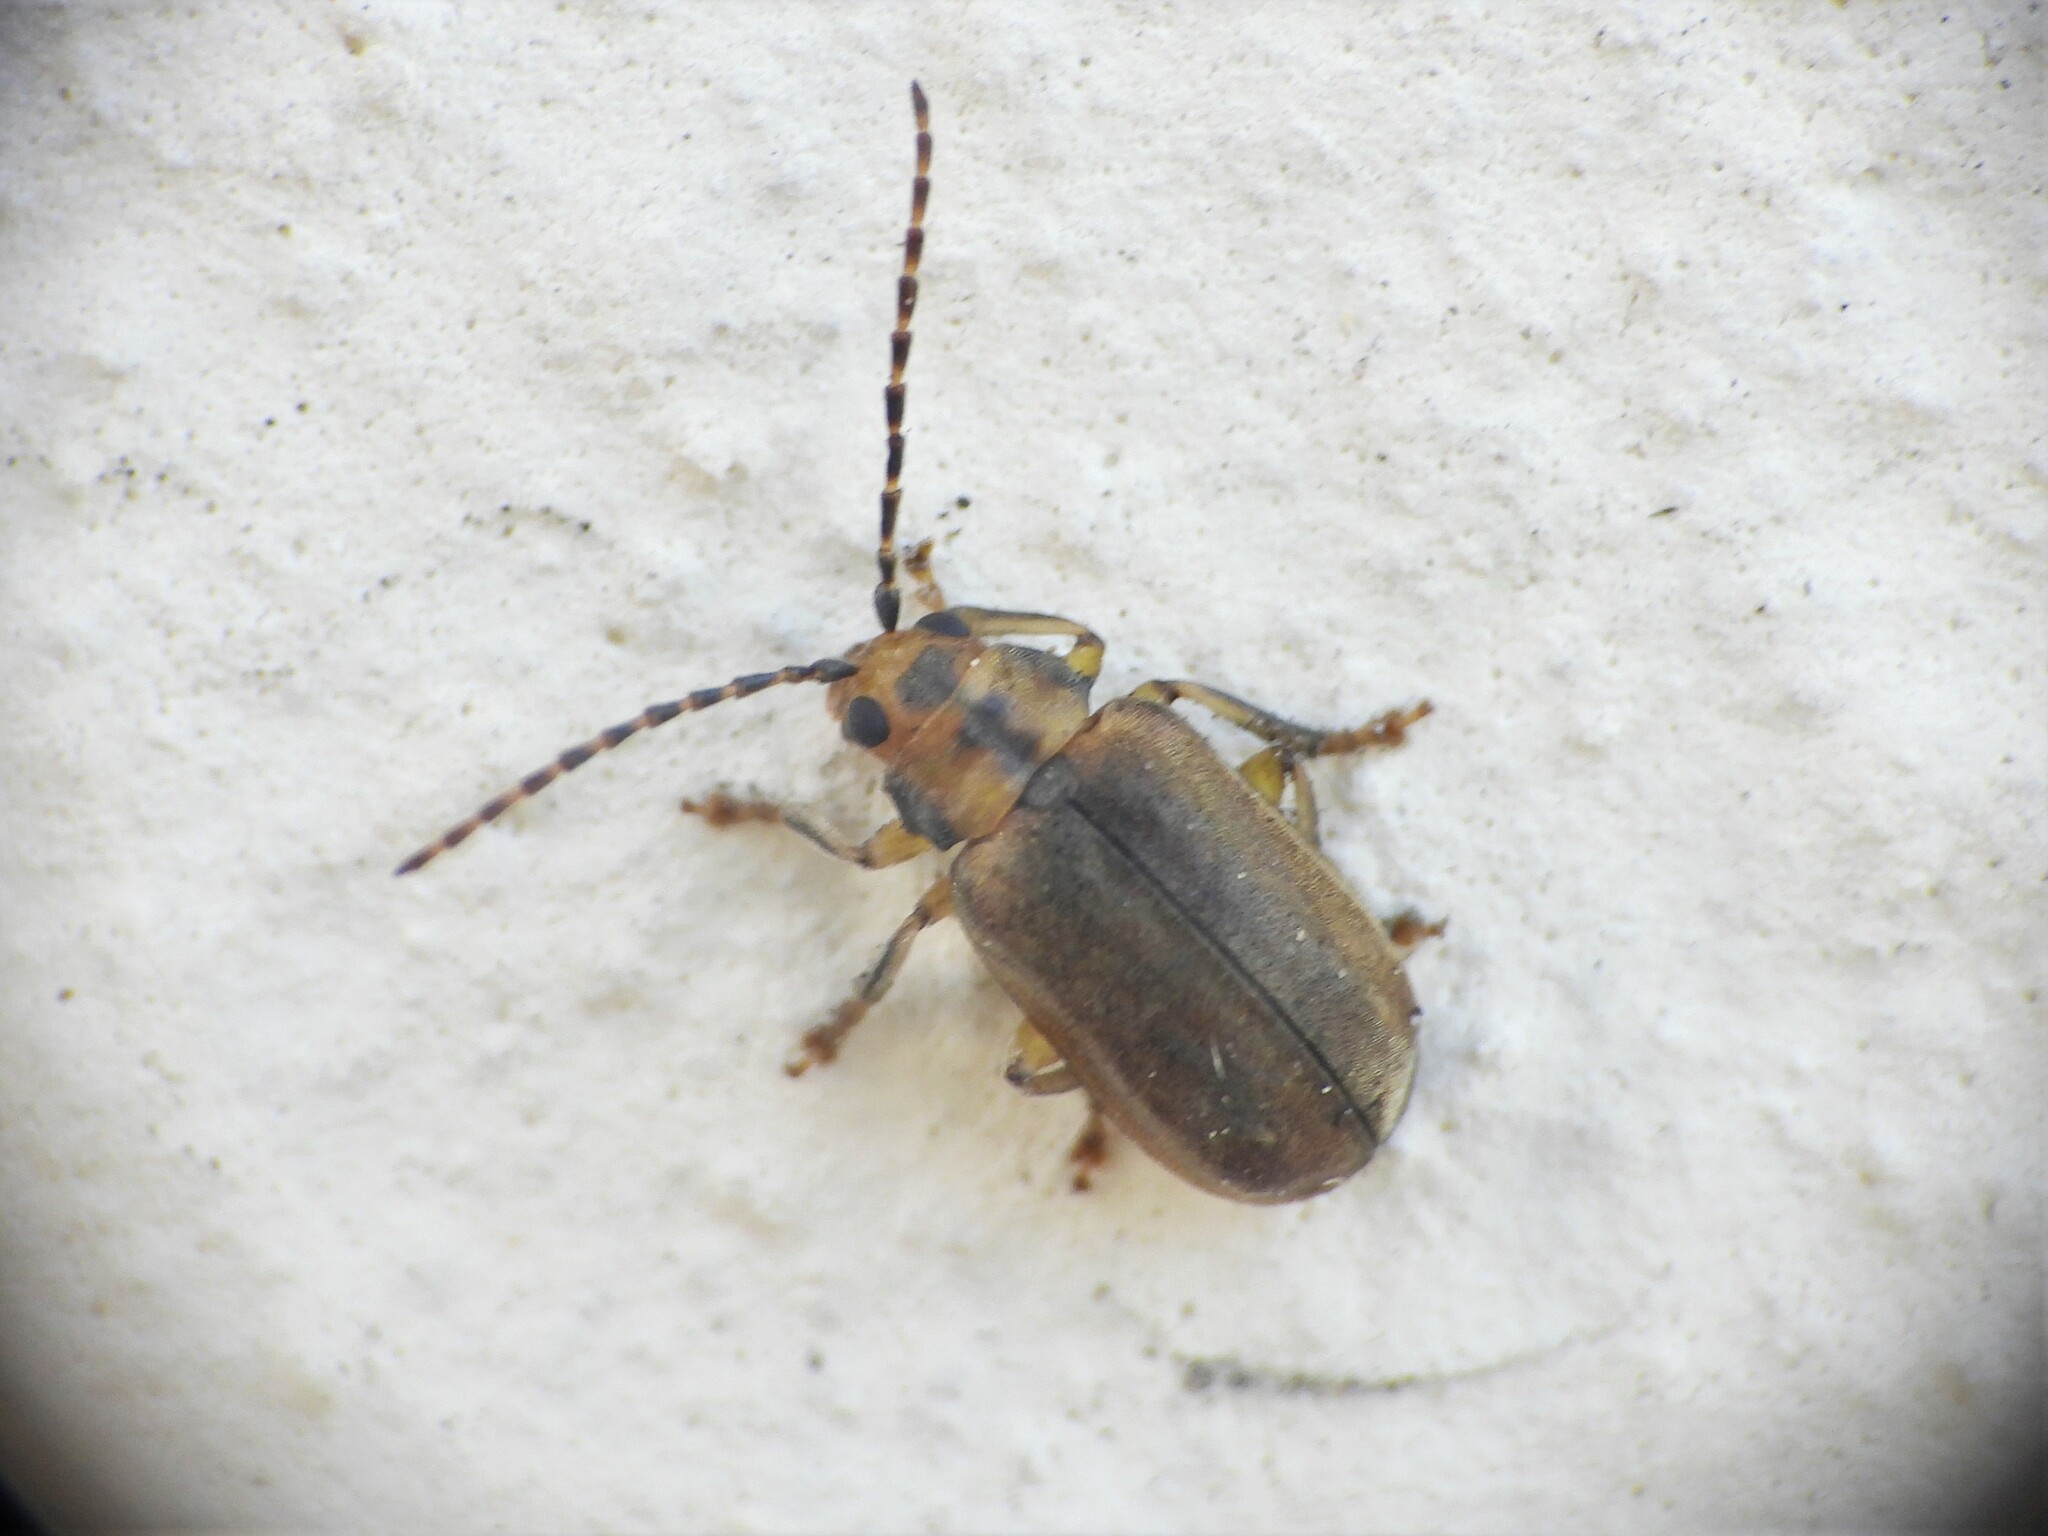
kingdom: Animalia
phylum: Arthropoda
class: Insecta
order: Coleoptera
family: Chrysomelidae
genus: Pyrrhalta
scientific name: Pyrrhalta viburni
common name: Guelder-rose leaf beetle
